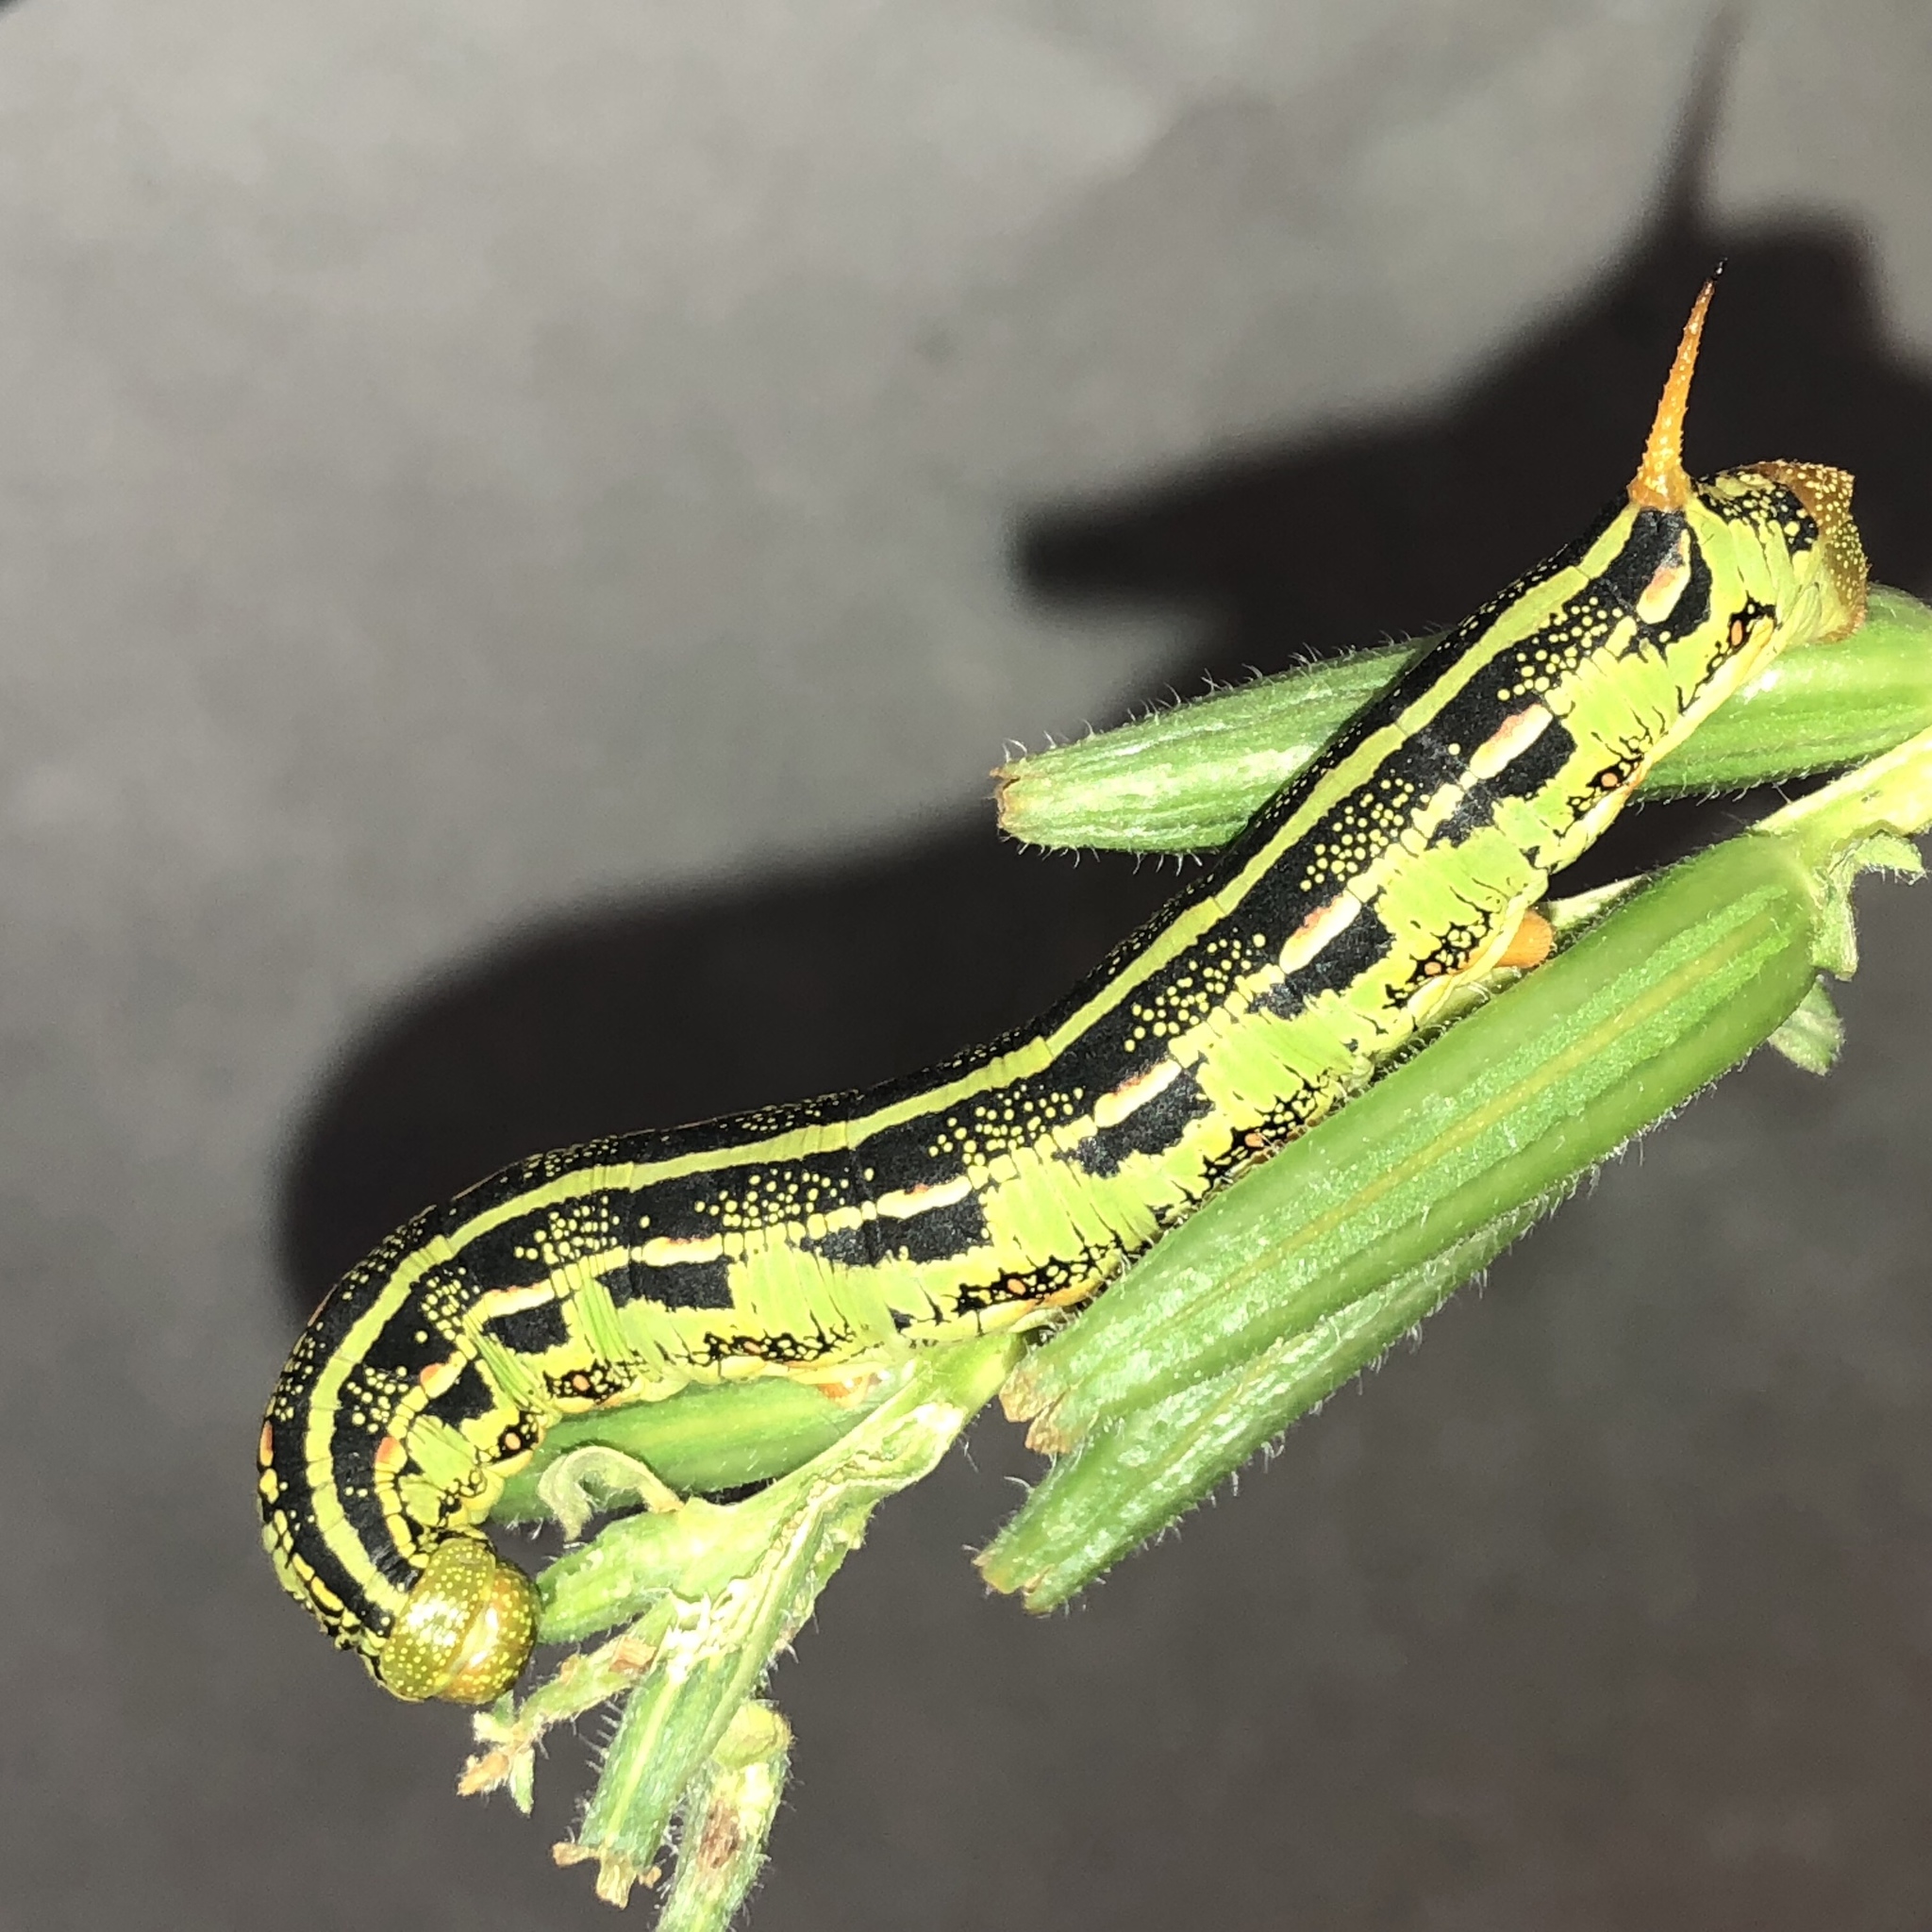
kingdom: Animalia
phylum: Arthropoda
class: Insecta
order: Lepidoptera
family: Sphingidae
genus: Hyles
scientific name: Hyles lineata
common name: White-lined sphinx
